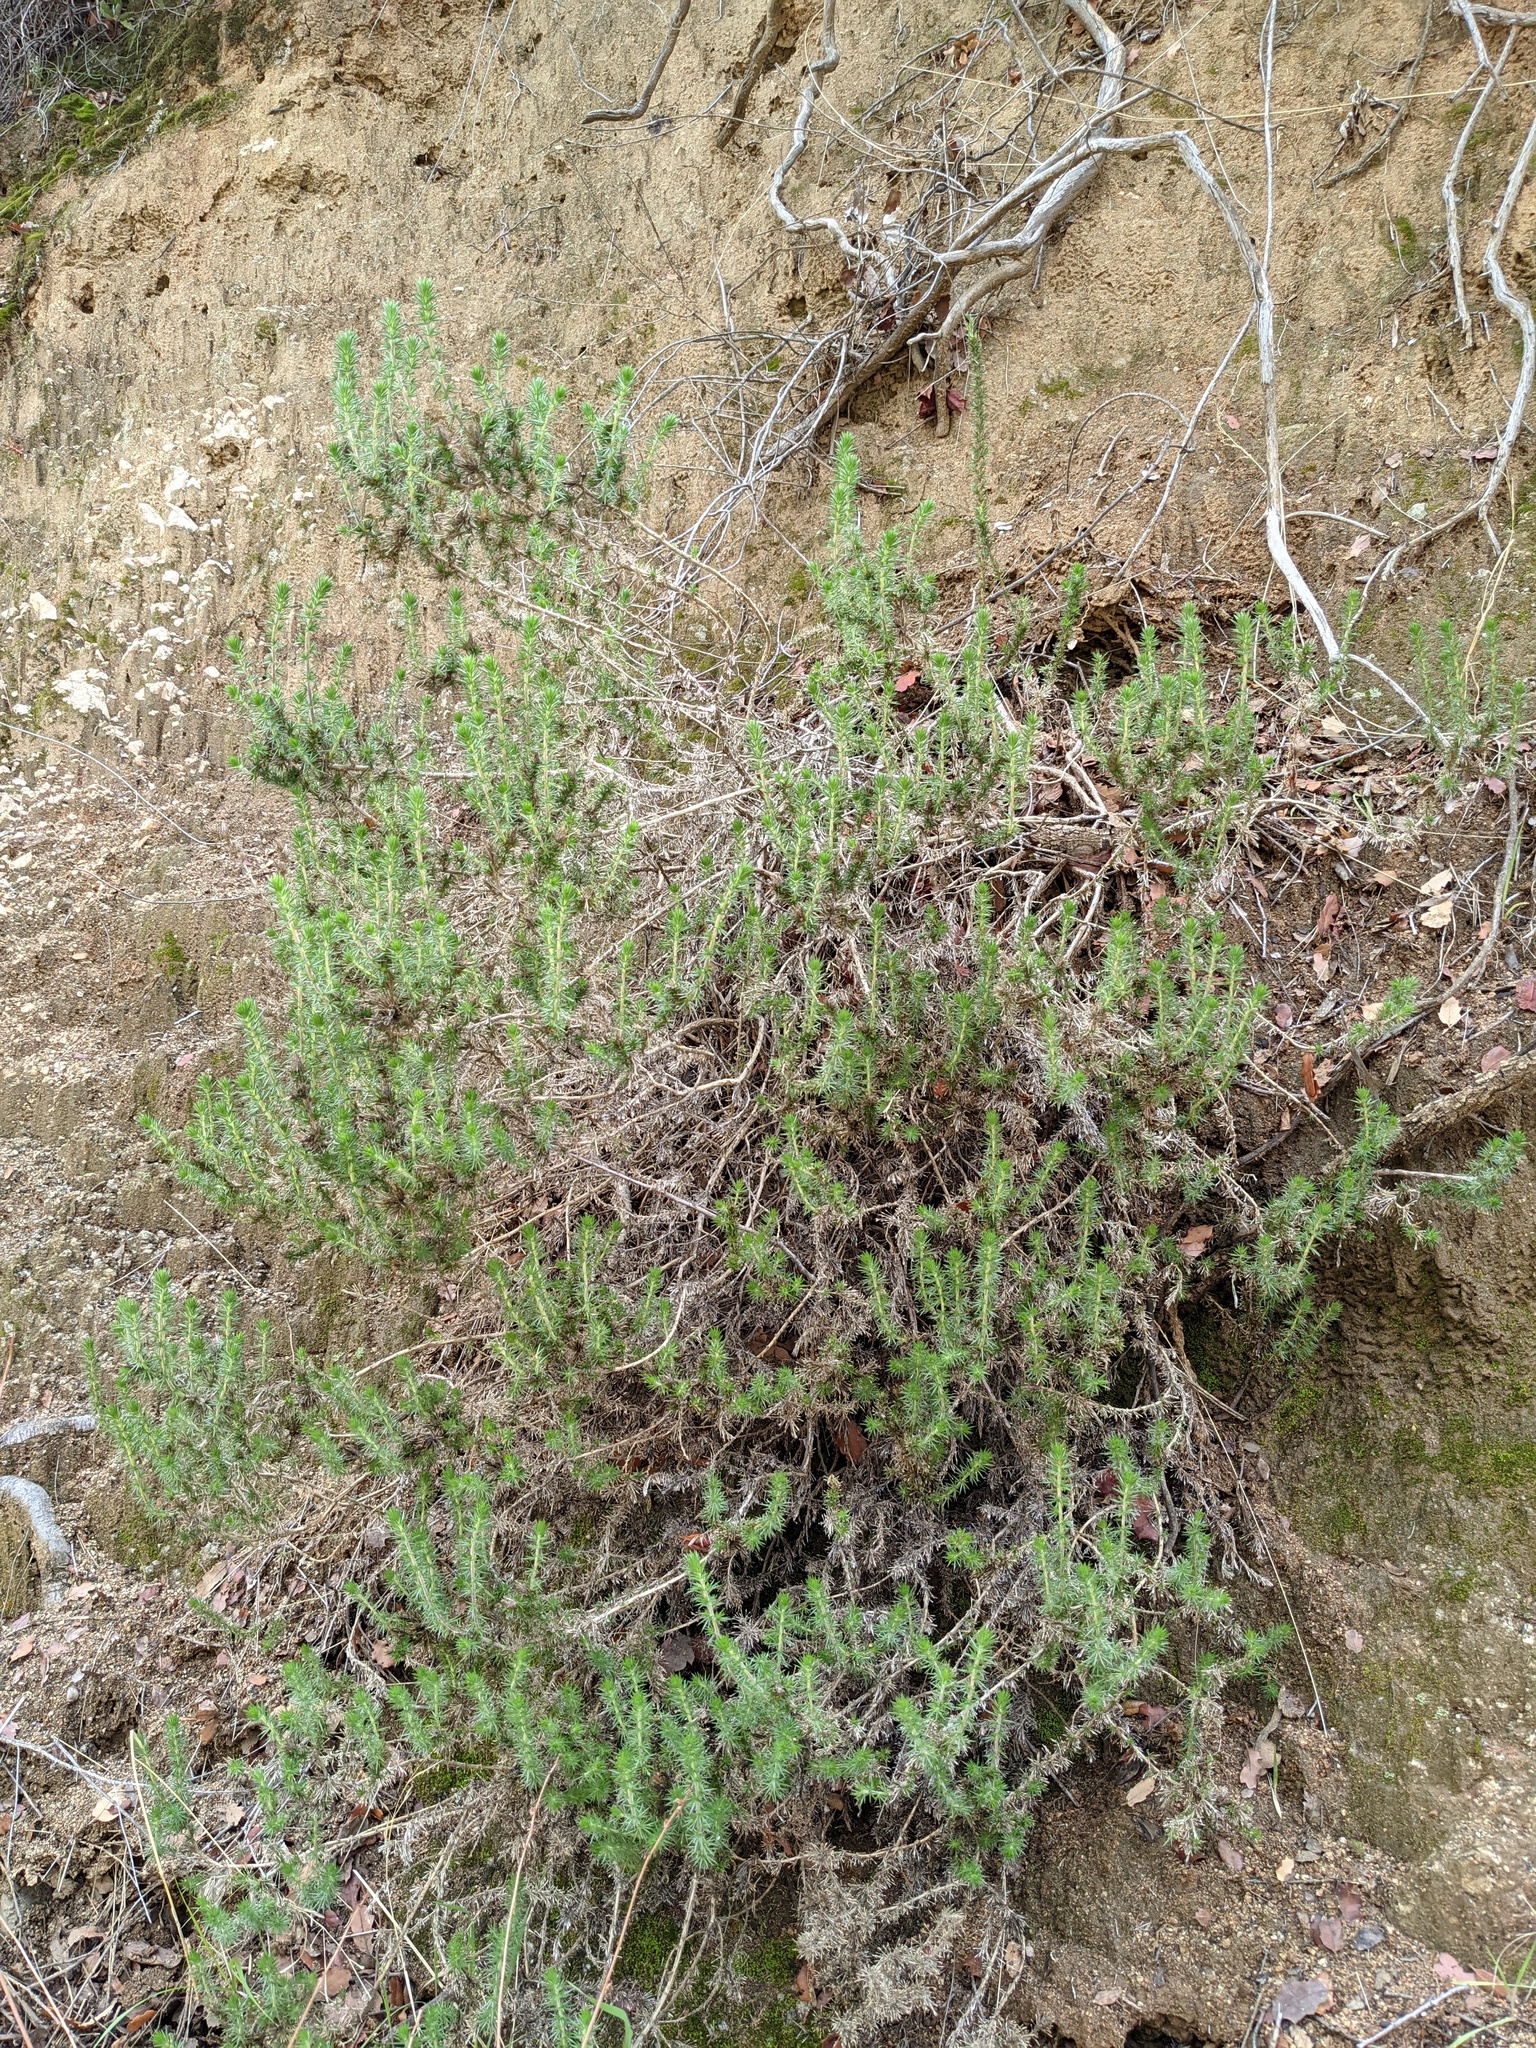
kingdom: Plantae
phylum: Tracheophyta
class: Magnoliopsida
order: Ericales
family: Polemoniaceae
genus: Linanthus
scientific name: Linanthus californicus
